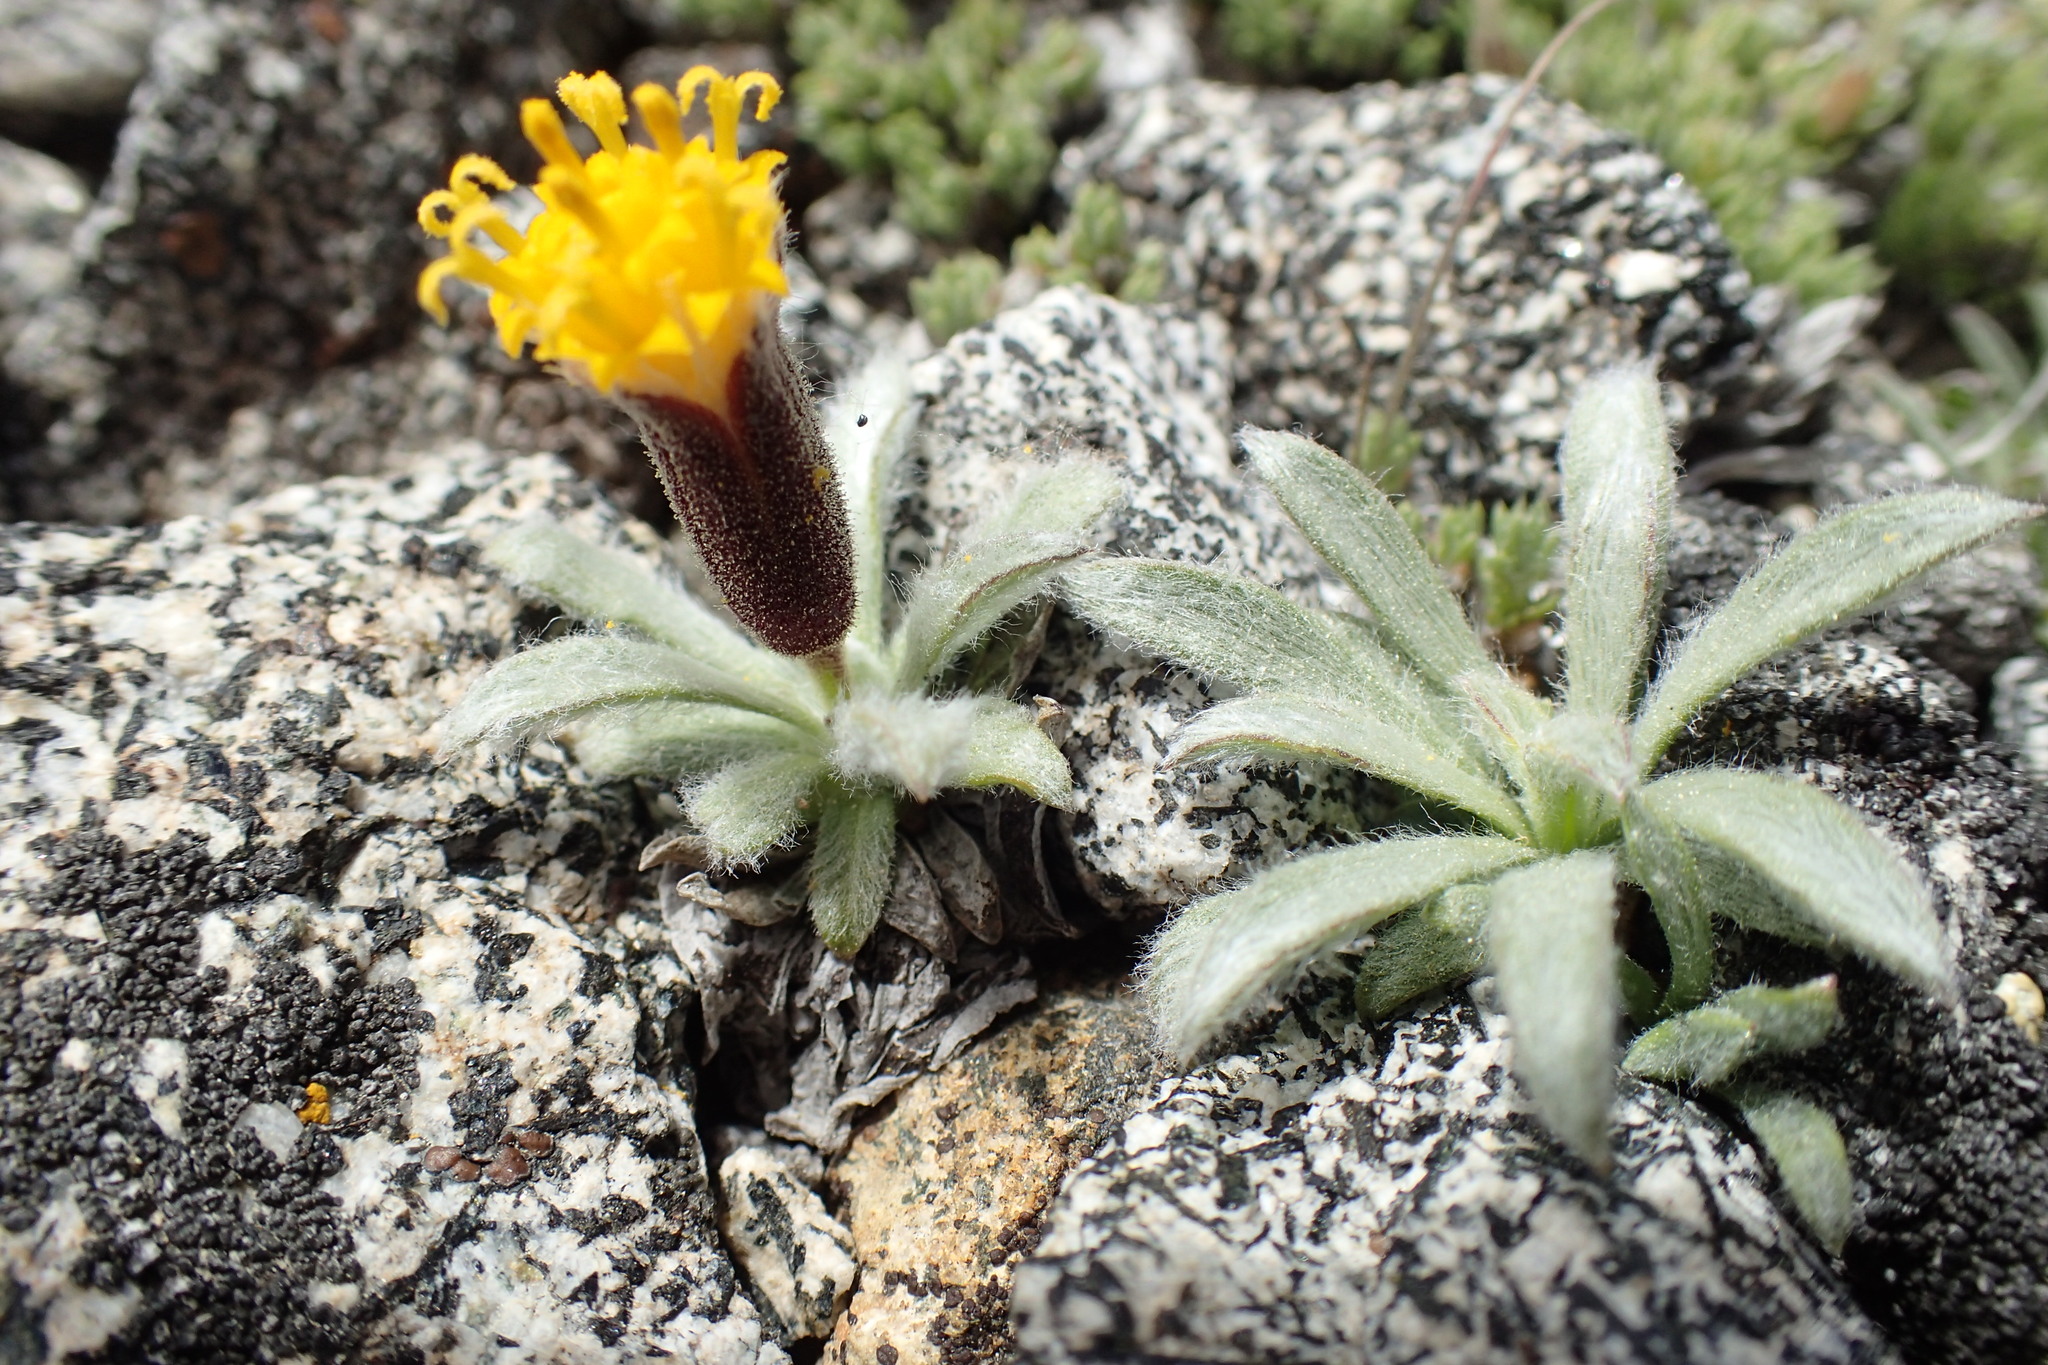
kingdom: Plantae
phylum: Tracheophyta
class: Magnoliopsida
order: Asterales
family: Asteraceae
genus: Raillardella
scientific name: Raillardella argentea
